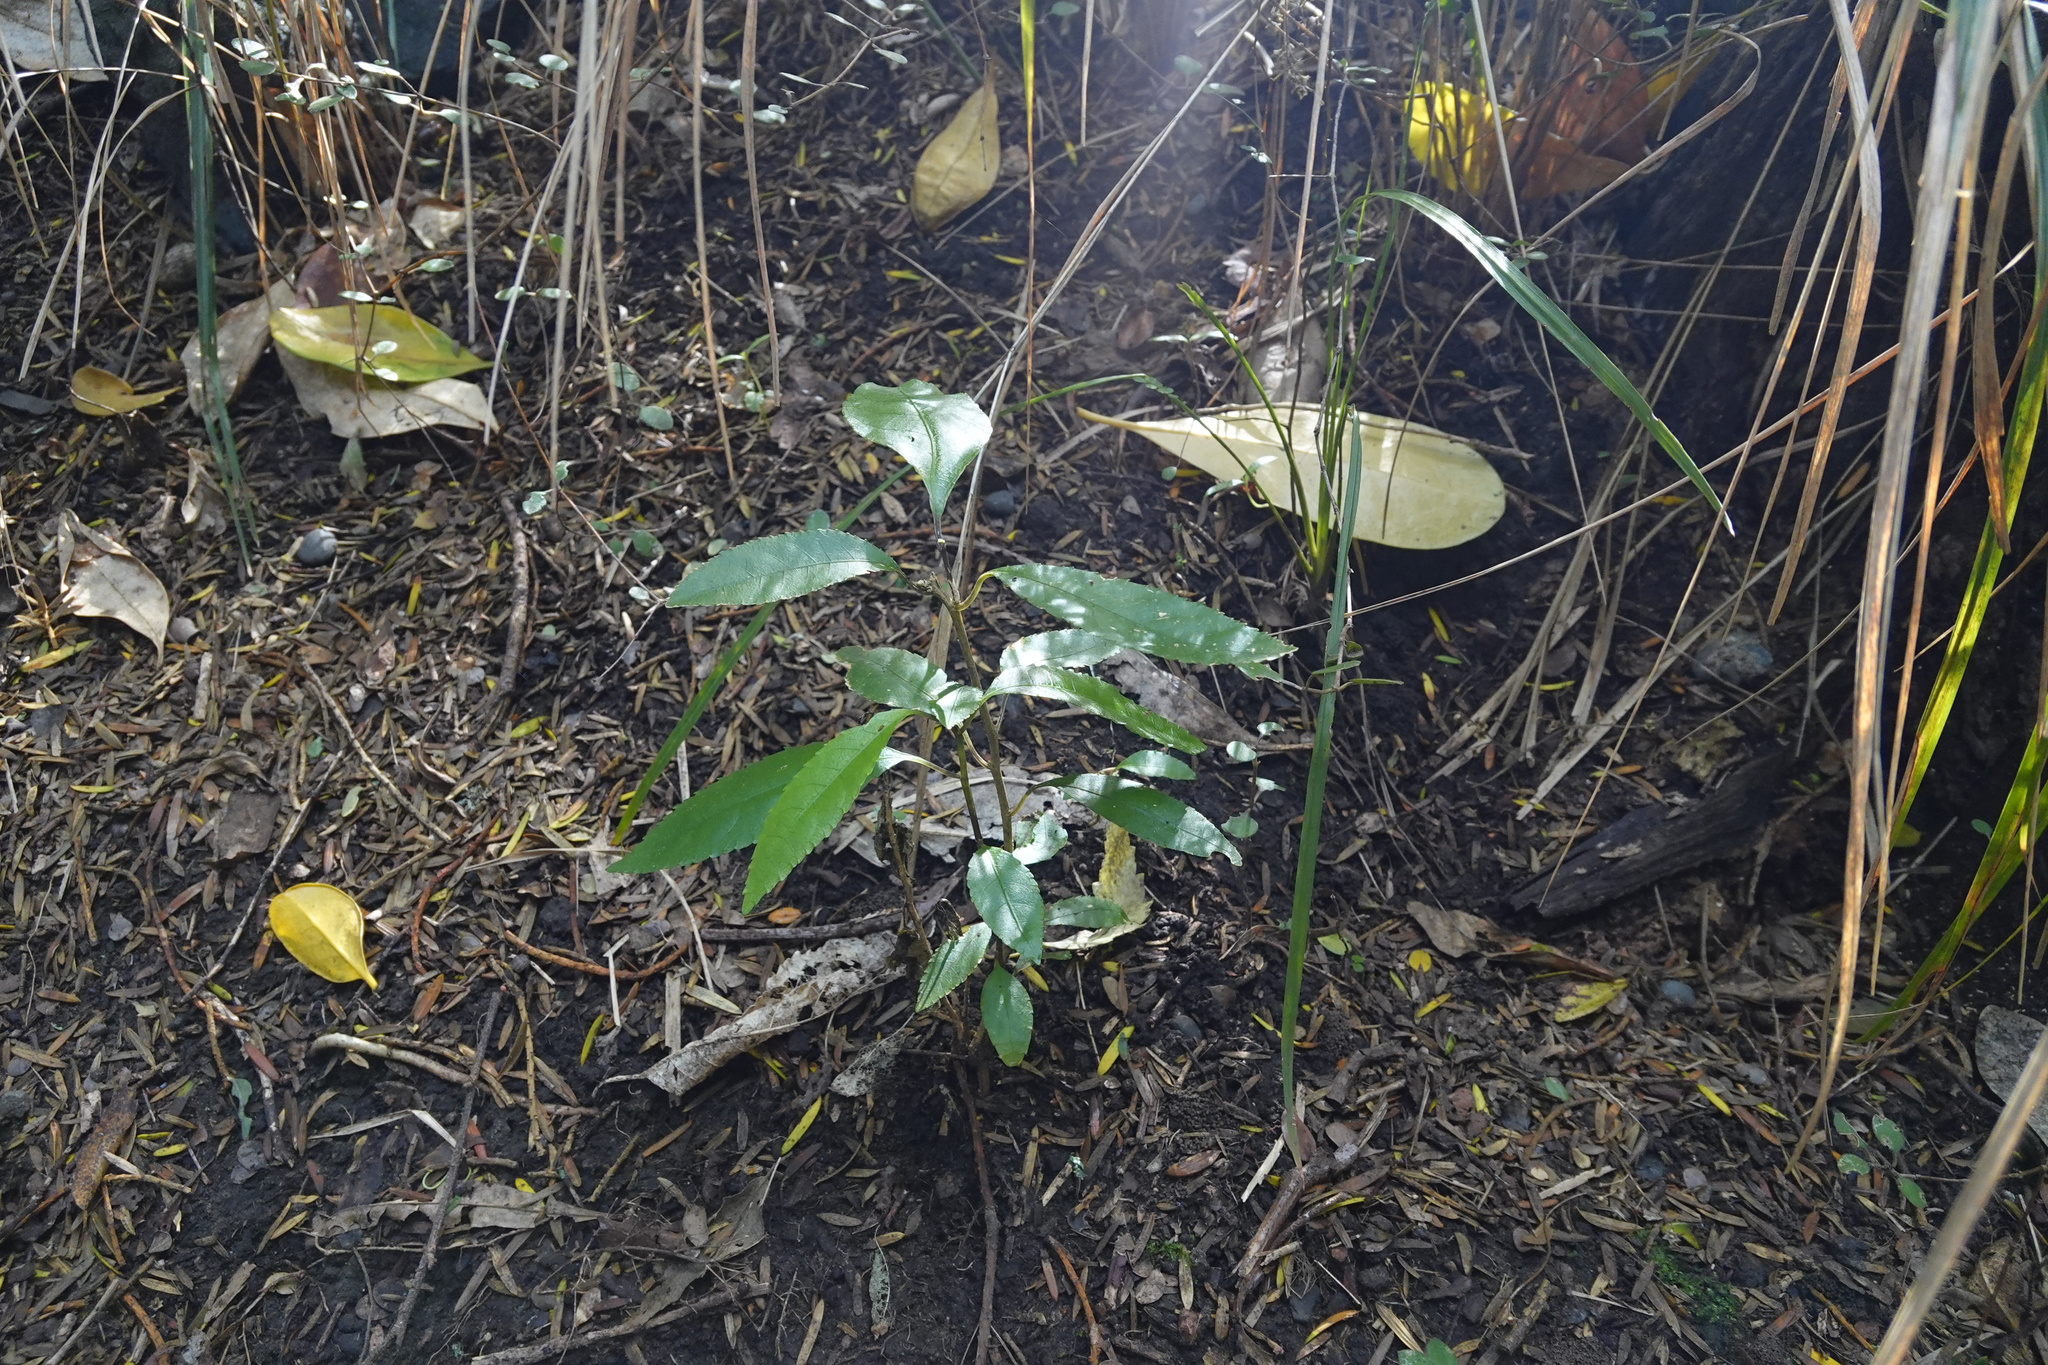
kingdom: Plantae
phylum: Tracheophyta
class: Magnoliopsida
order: Malpighiales
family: Violaceae
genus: Melicytus
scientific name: Melicytus ramiflorus
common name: Mahoe
